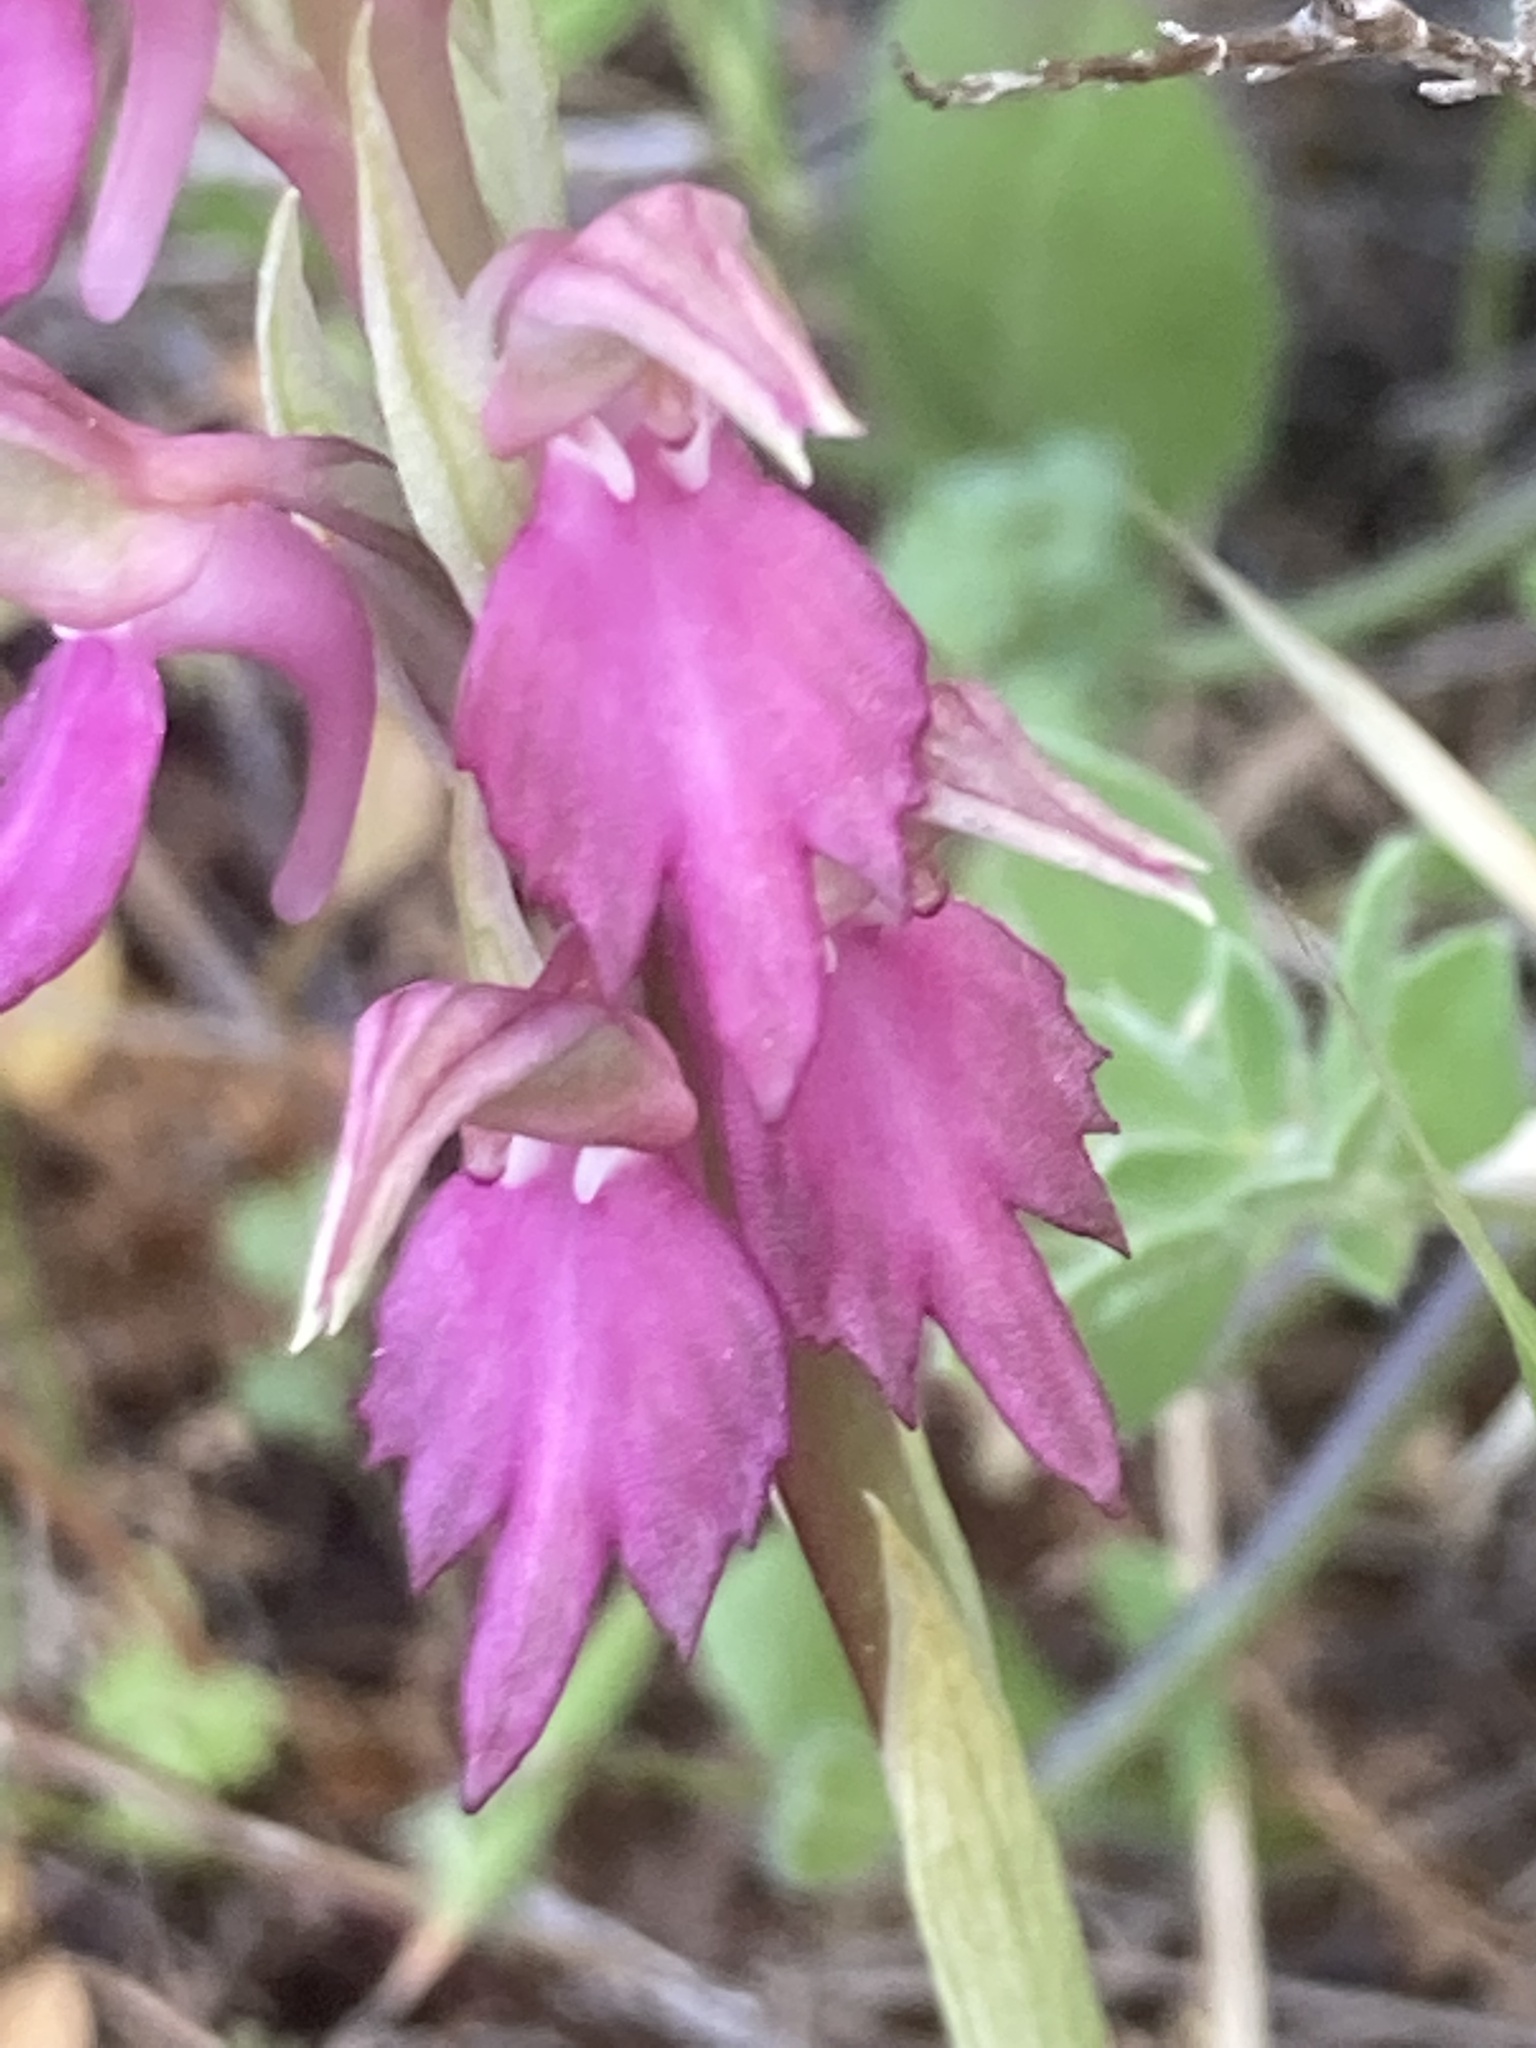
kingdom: Plantae
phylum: Tracheophyta
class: Liliopsida
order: Asparagales
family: Orchidaceae
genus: Anacamptis
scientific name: Anacamptis sancta
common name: Holy orchid
